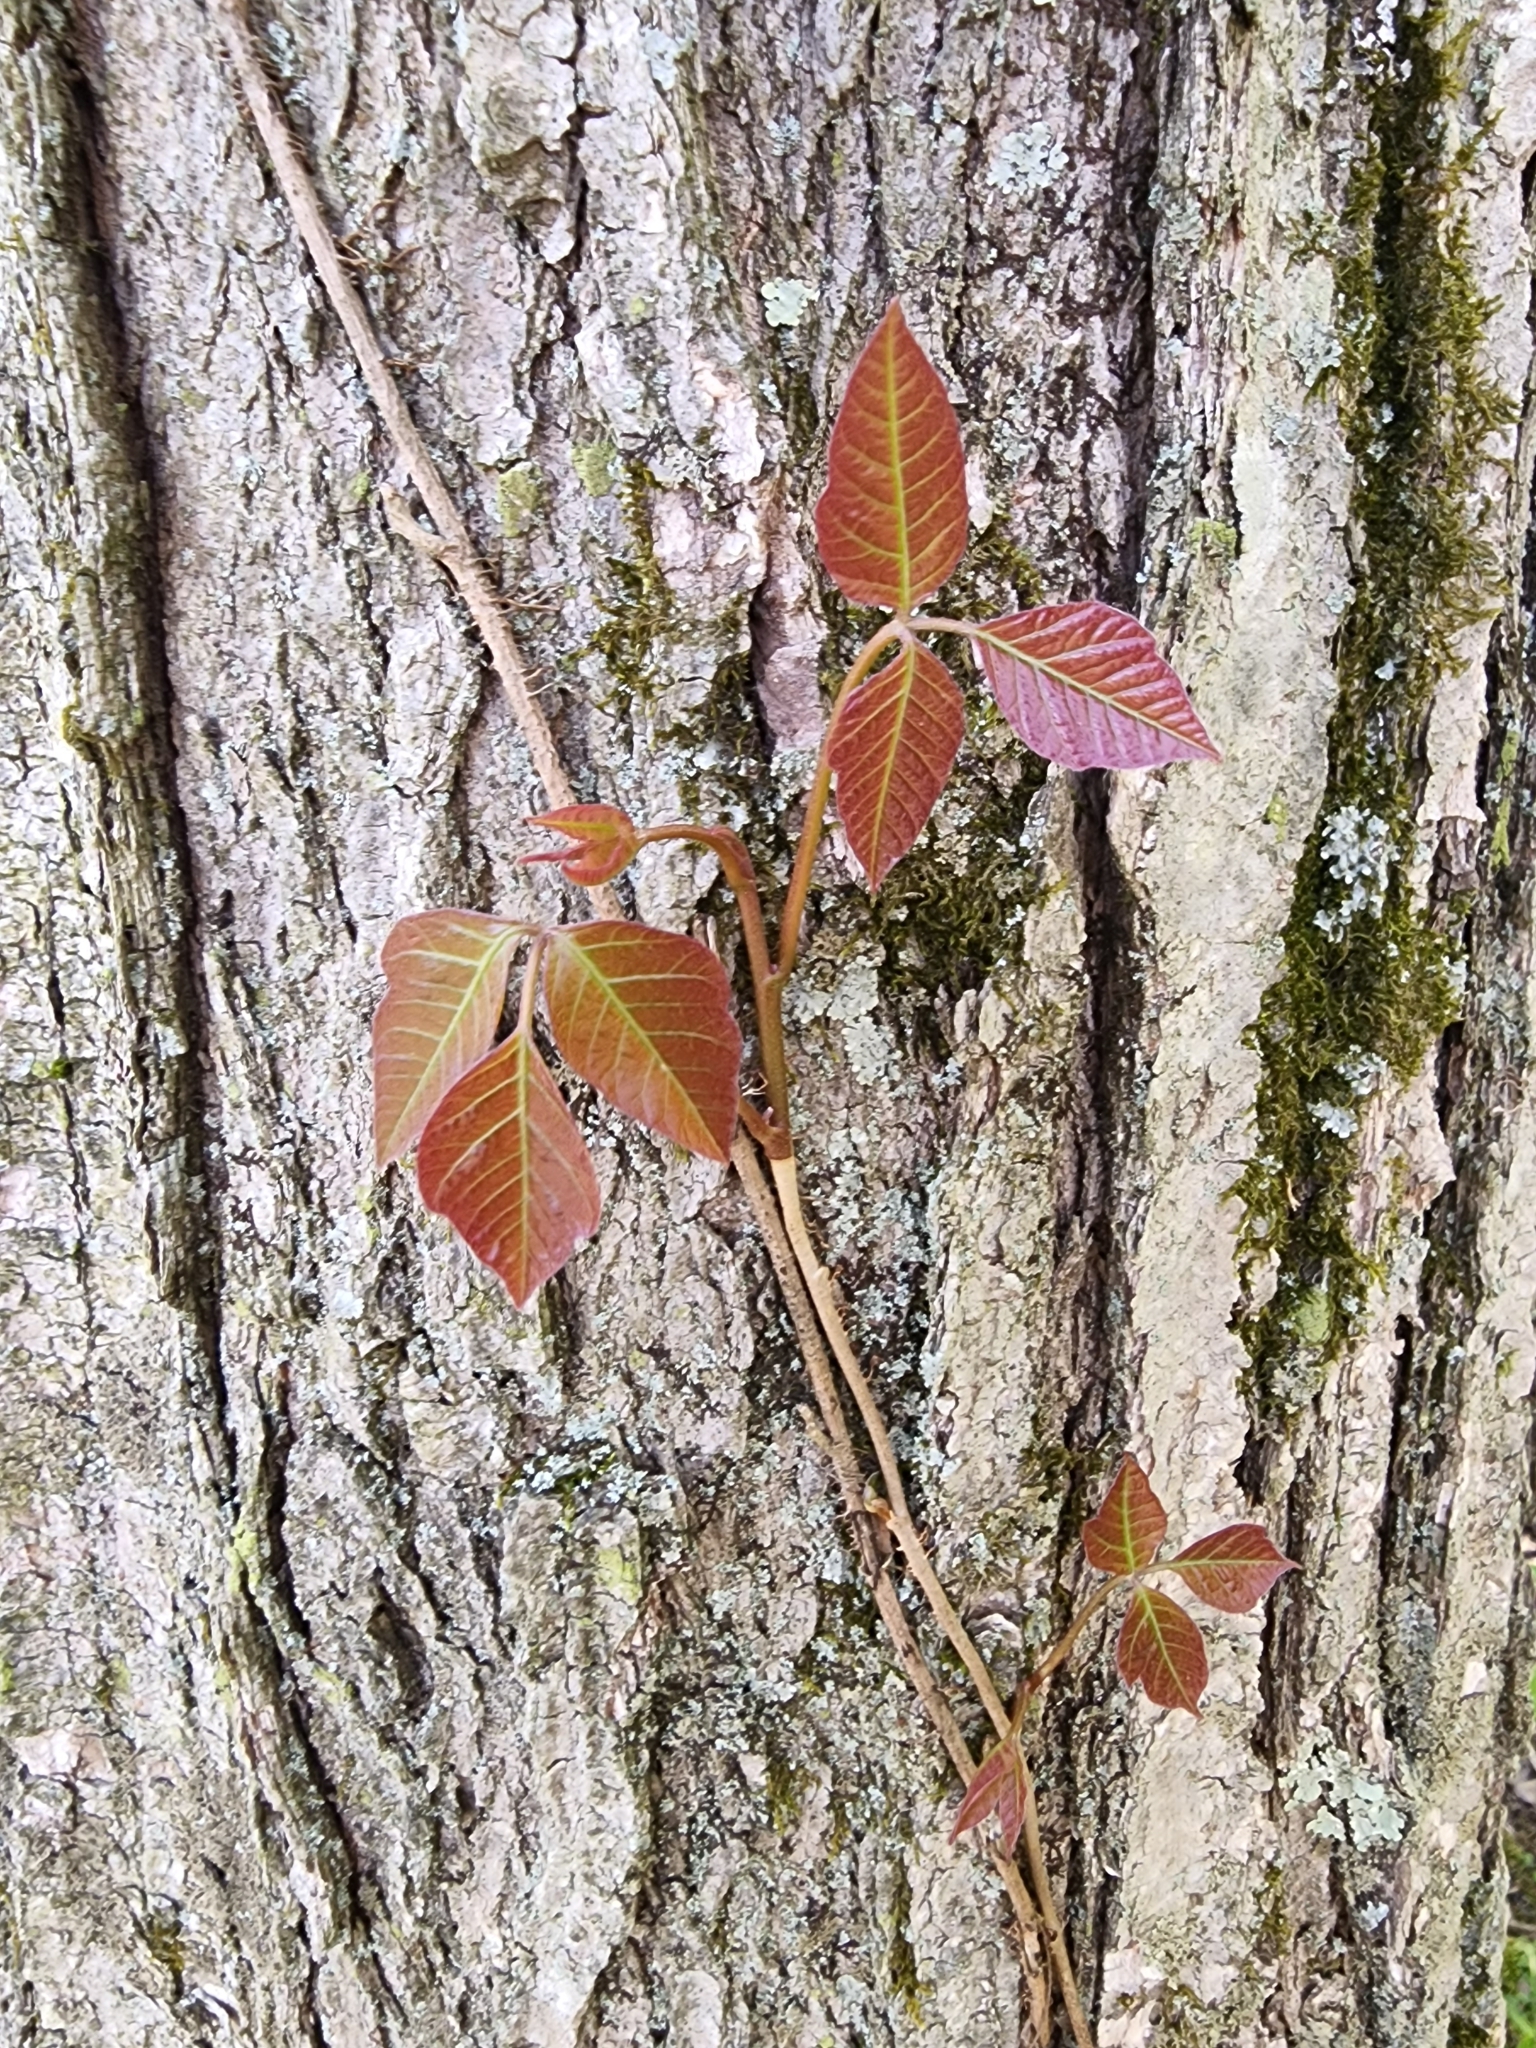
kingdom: Plantae
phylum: Tracheophyta
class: Magnoliopsida
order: Sapindales
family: Anacardiaceae
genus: Toxicodendron
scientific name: Toxicodendron radicans
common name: Poison ivy
